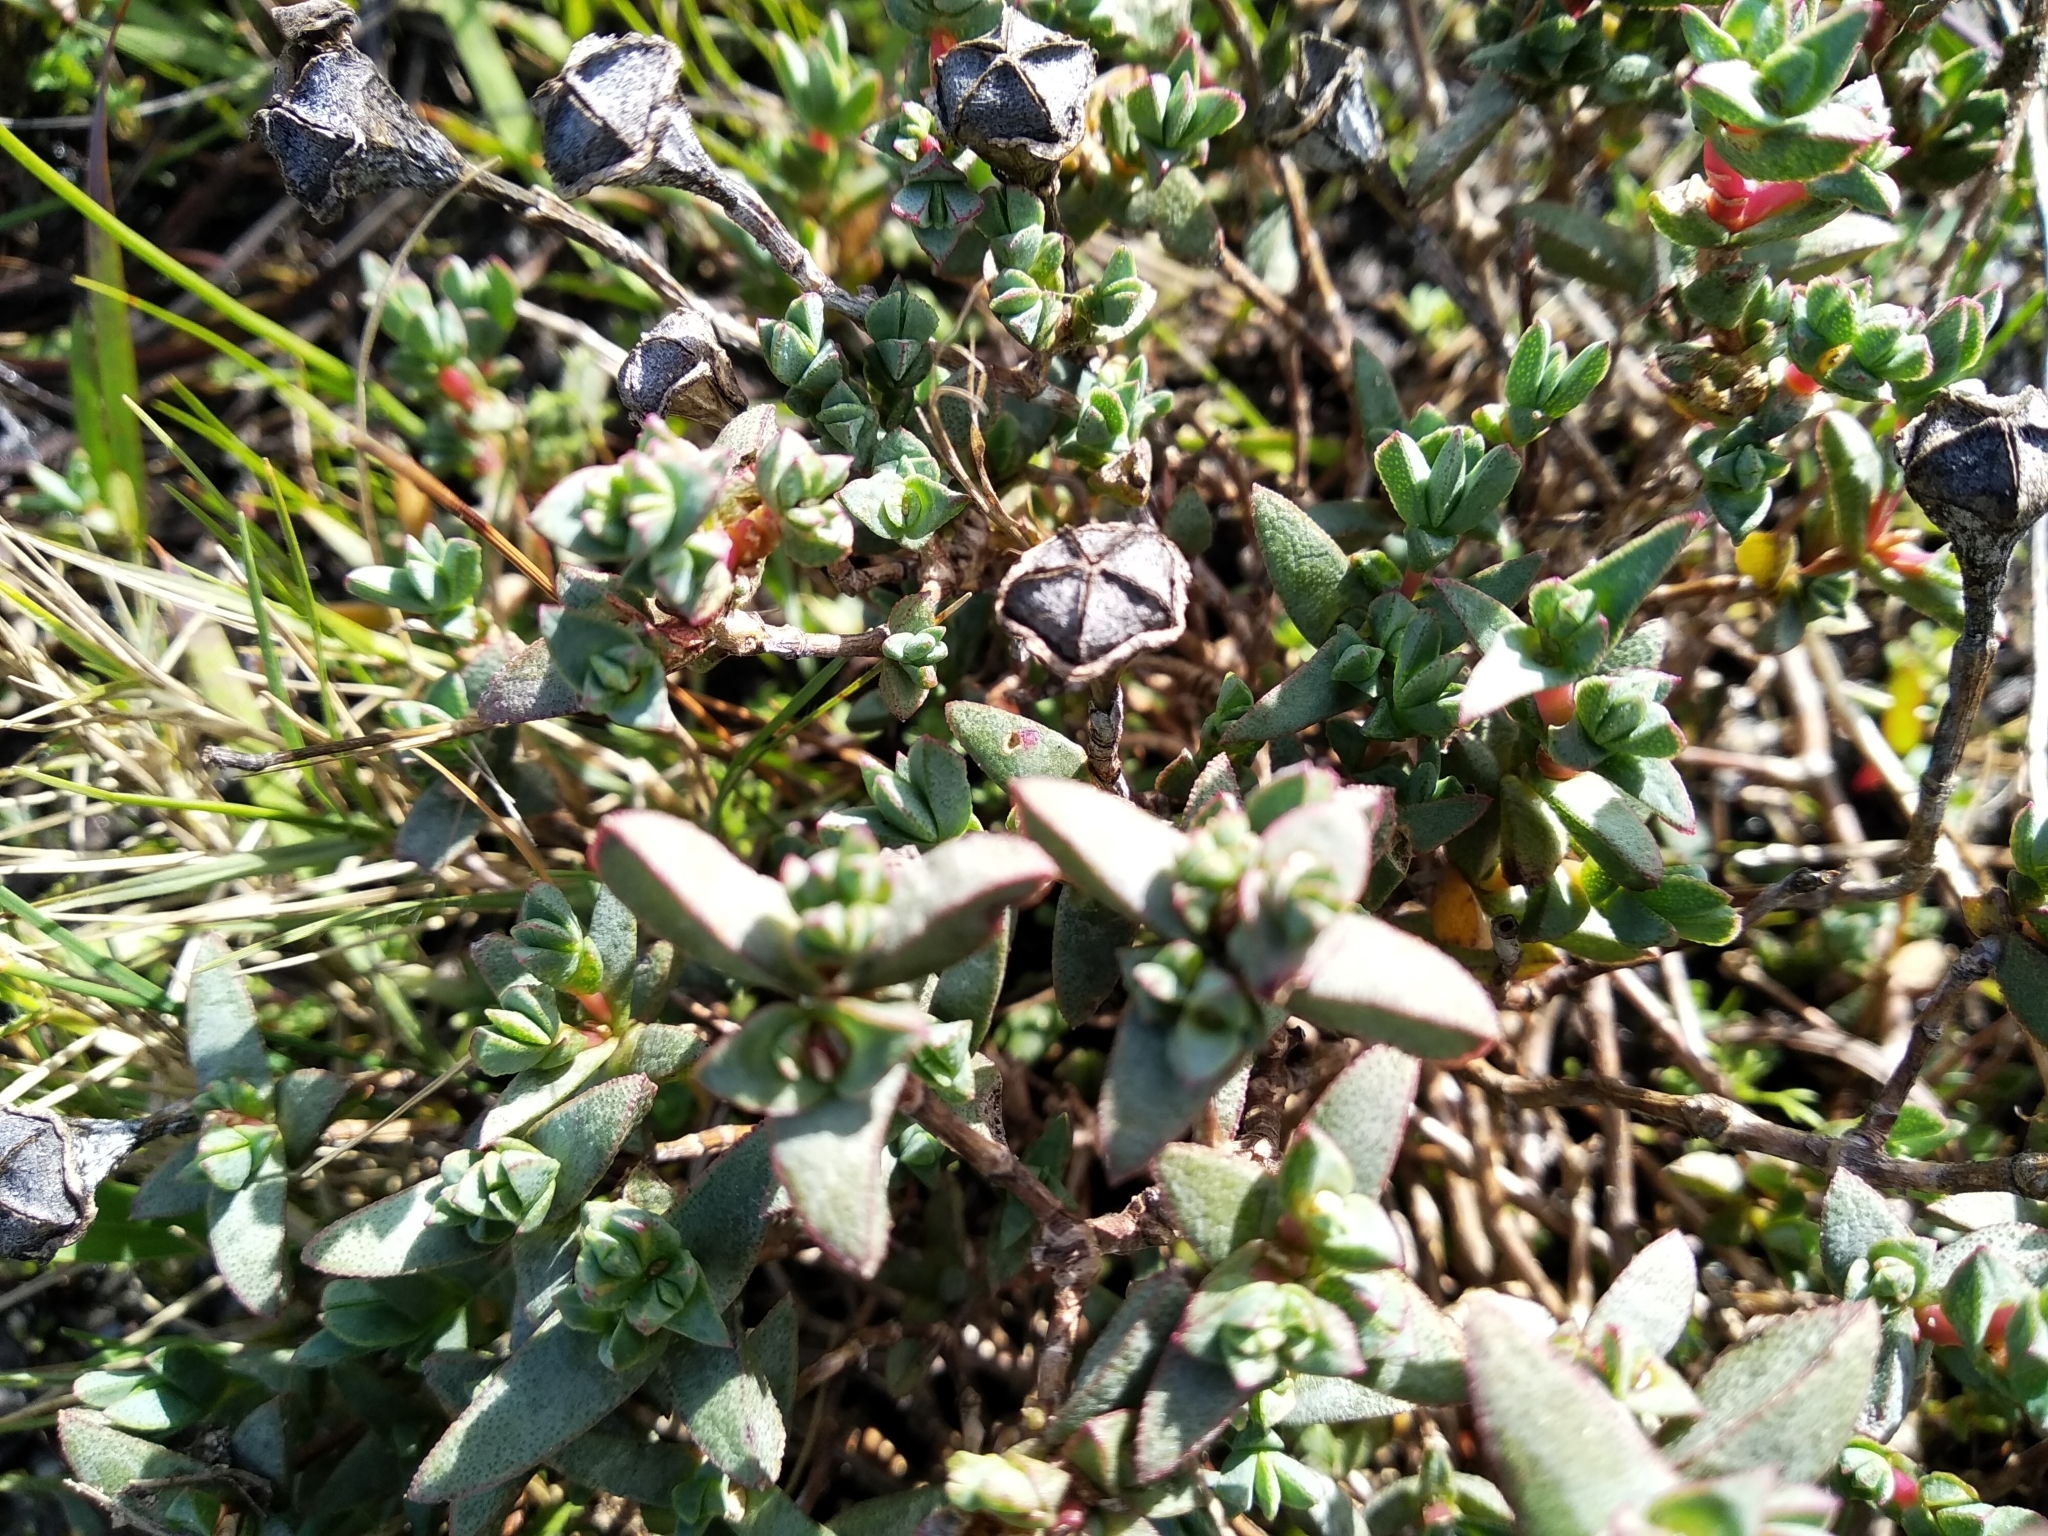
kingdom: Plantae
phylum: Tracheophyta
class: Magnoliopsida
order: Caryophyllales
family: Aizoaceae
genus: Lampranthus
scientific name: Lampranthus glaucus
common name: Noonflower
